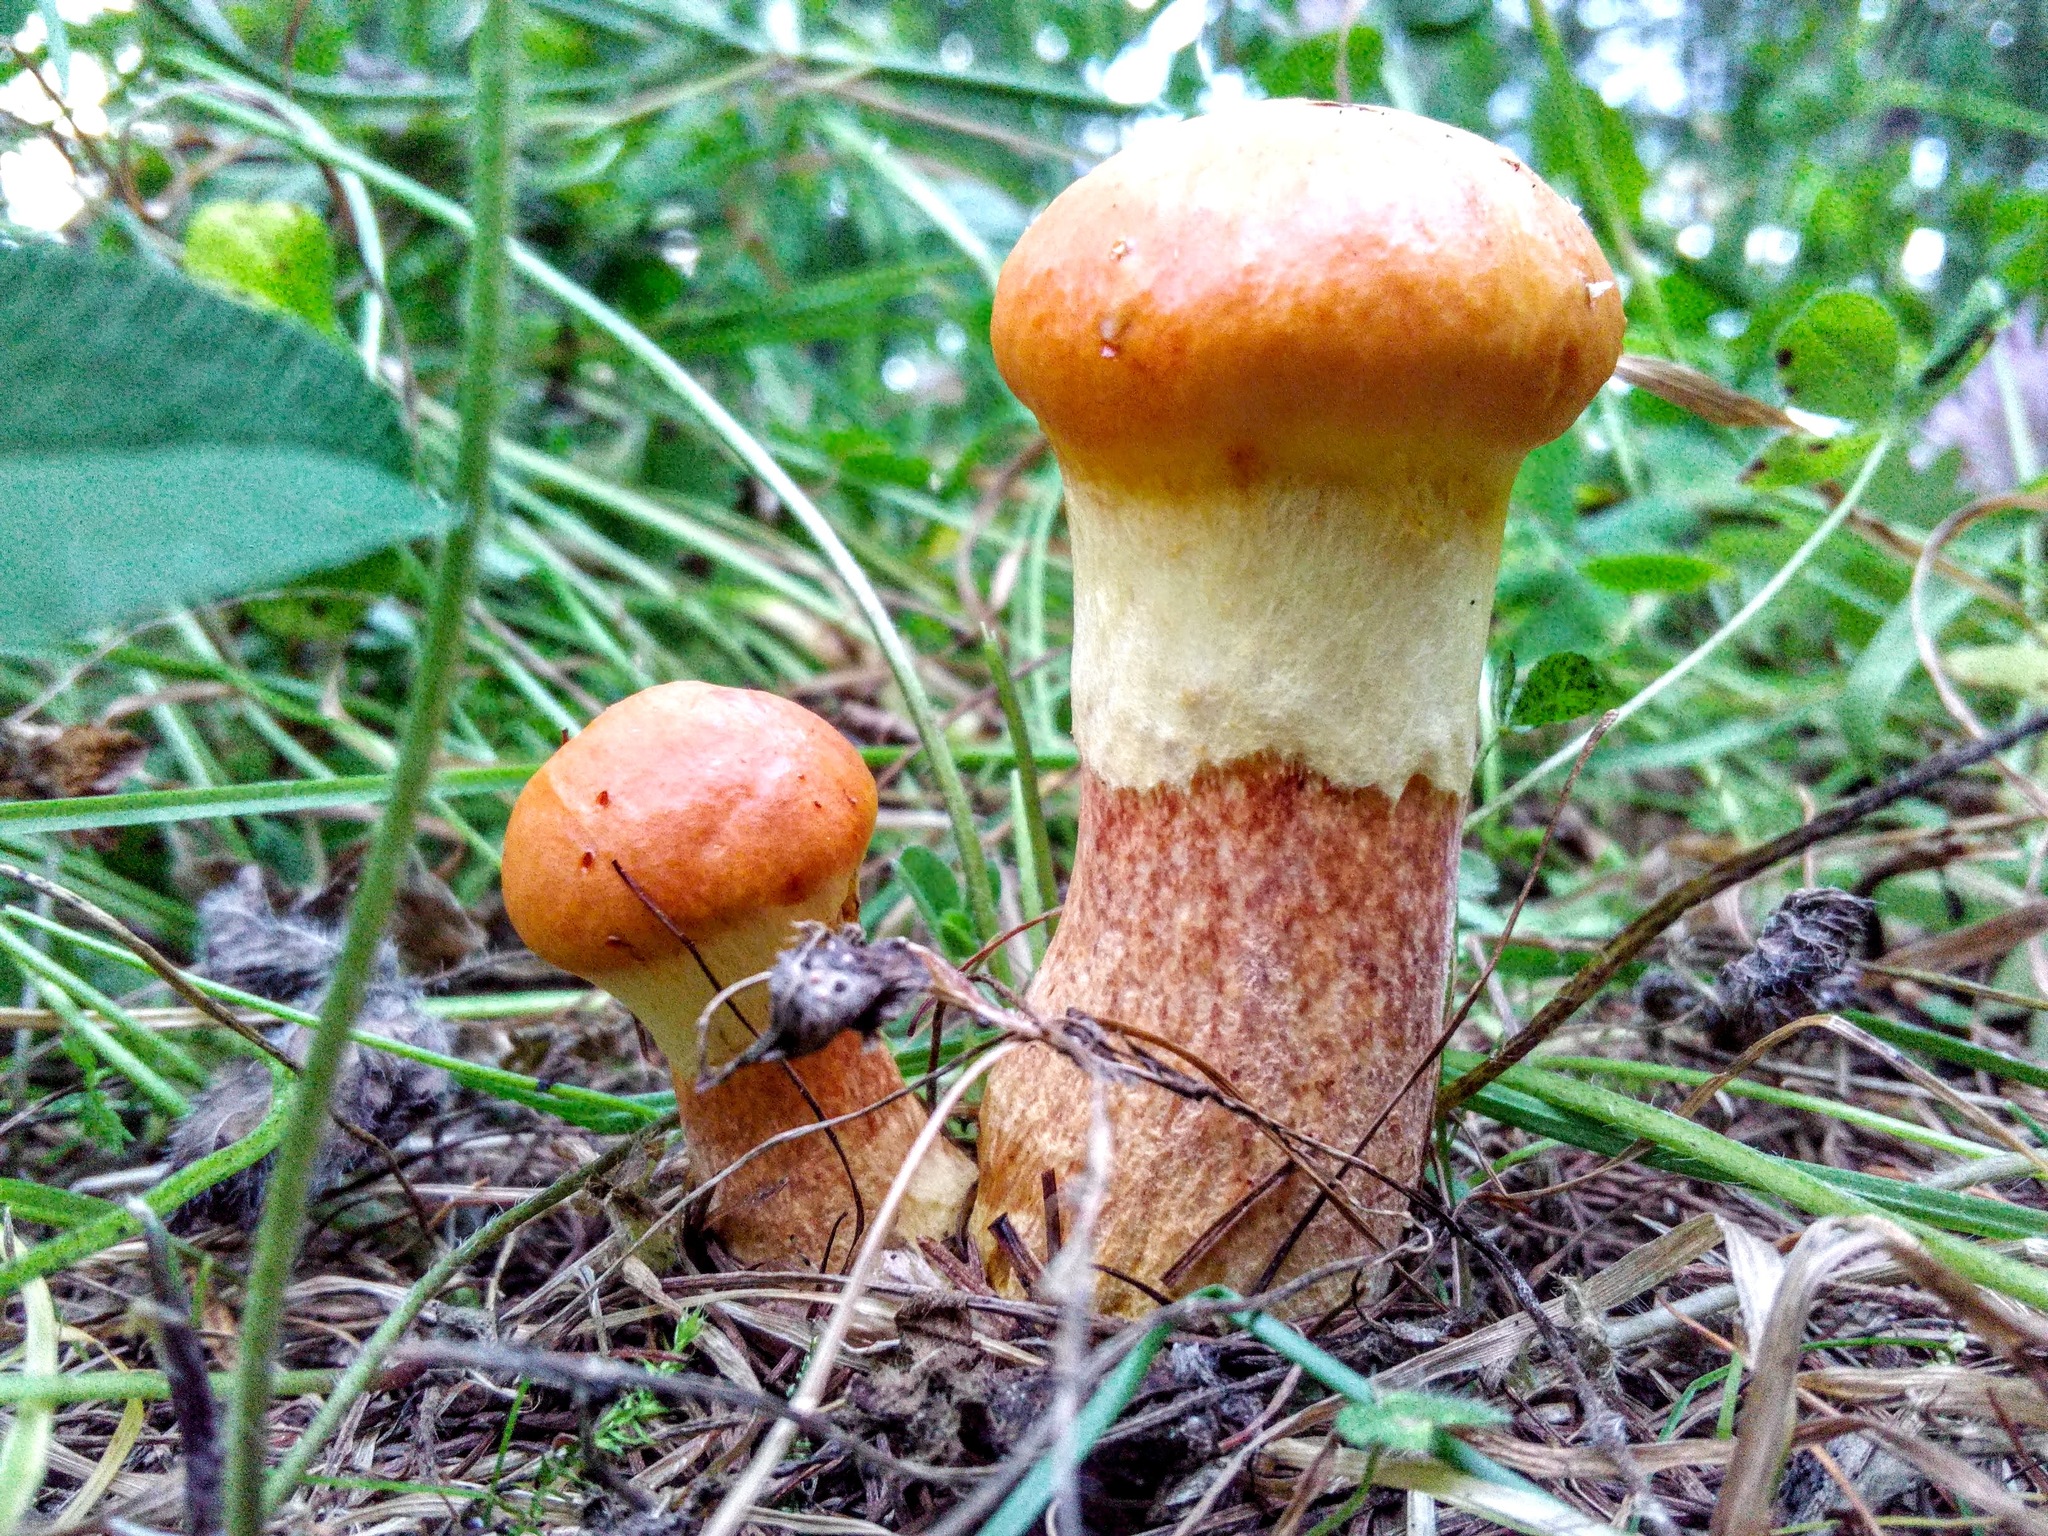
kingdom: Fungi
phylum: Basidiomycota
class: Agaricomycetes
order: Boletales
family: Suillaceae
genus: Suillus
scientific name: Suillus grevillei
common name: Larch bolete
